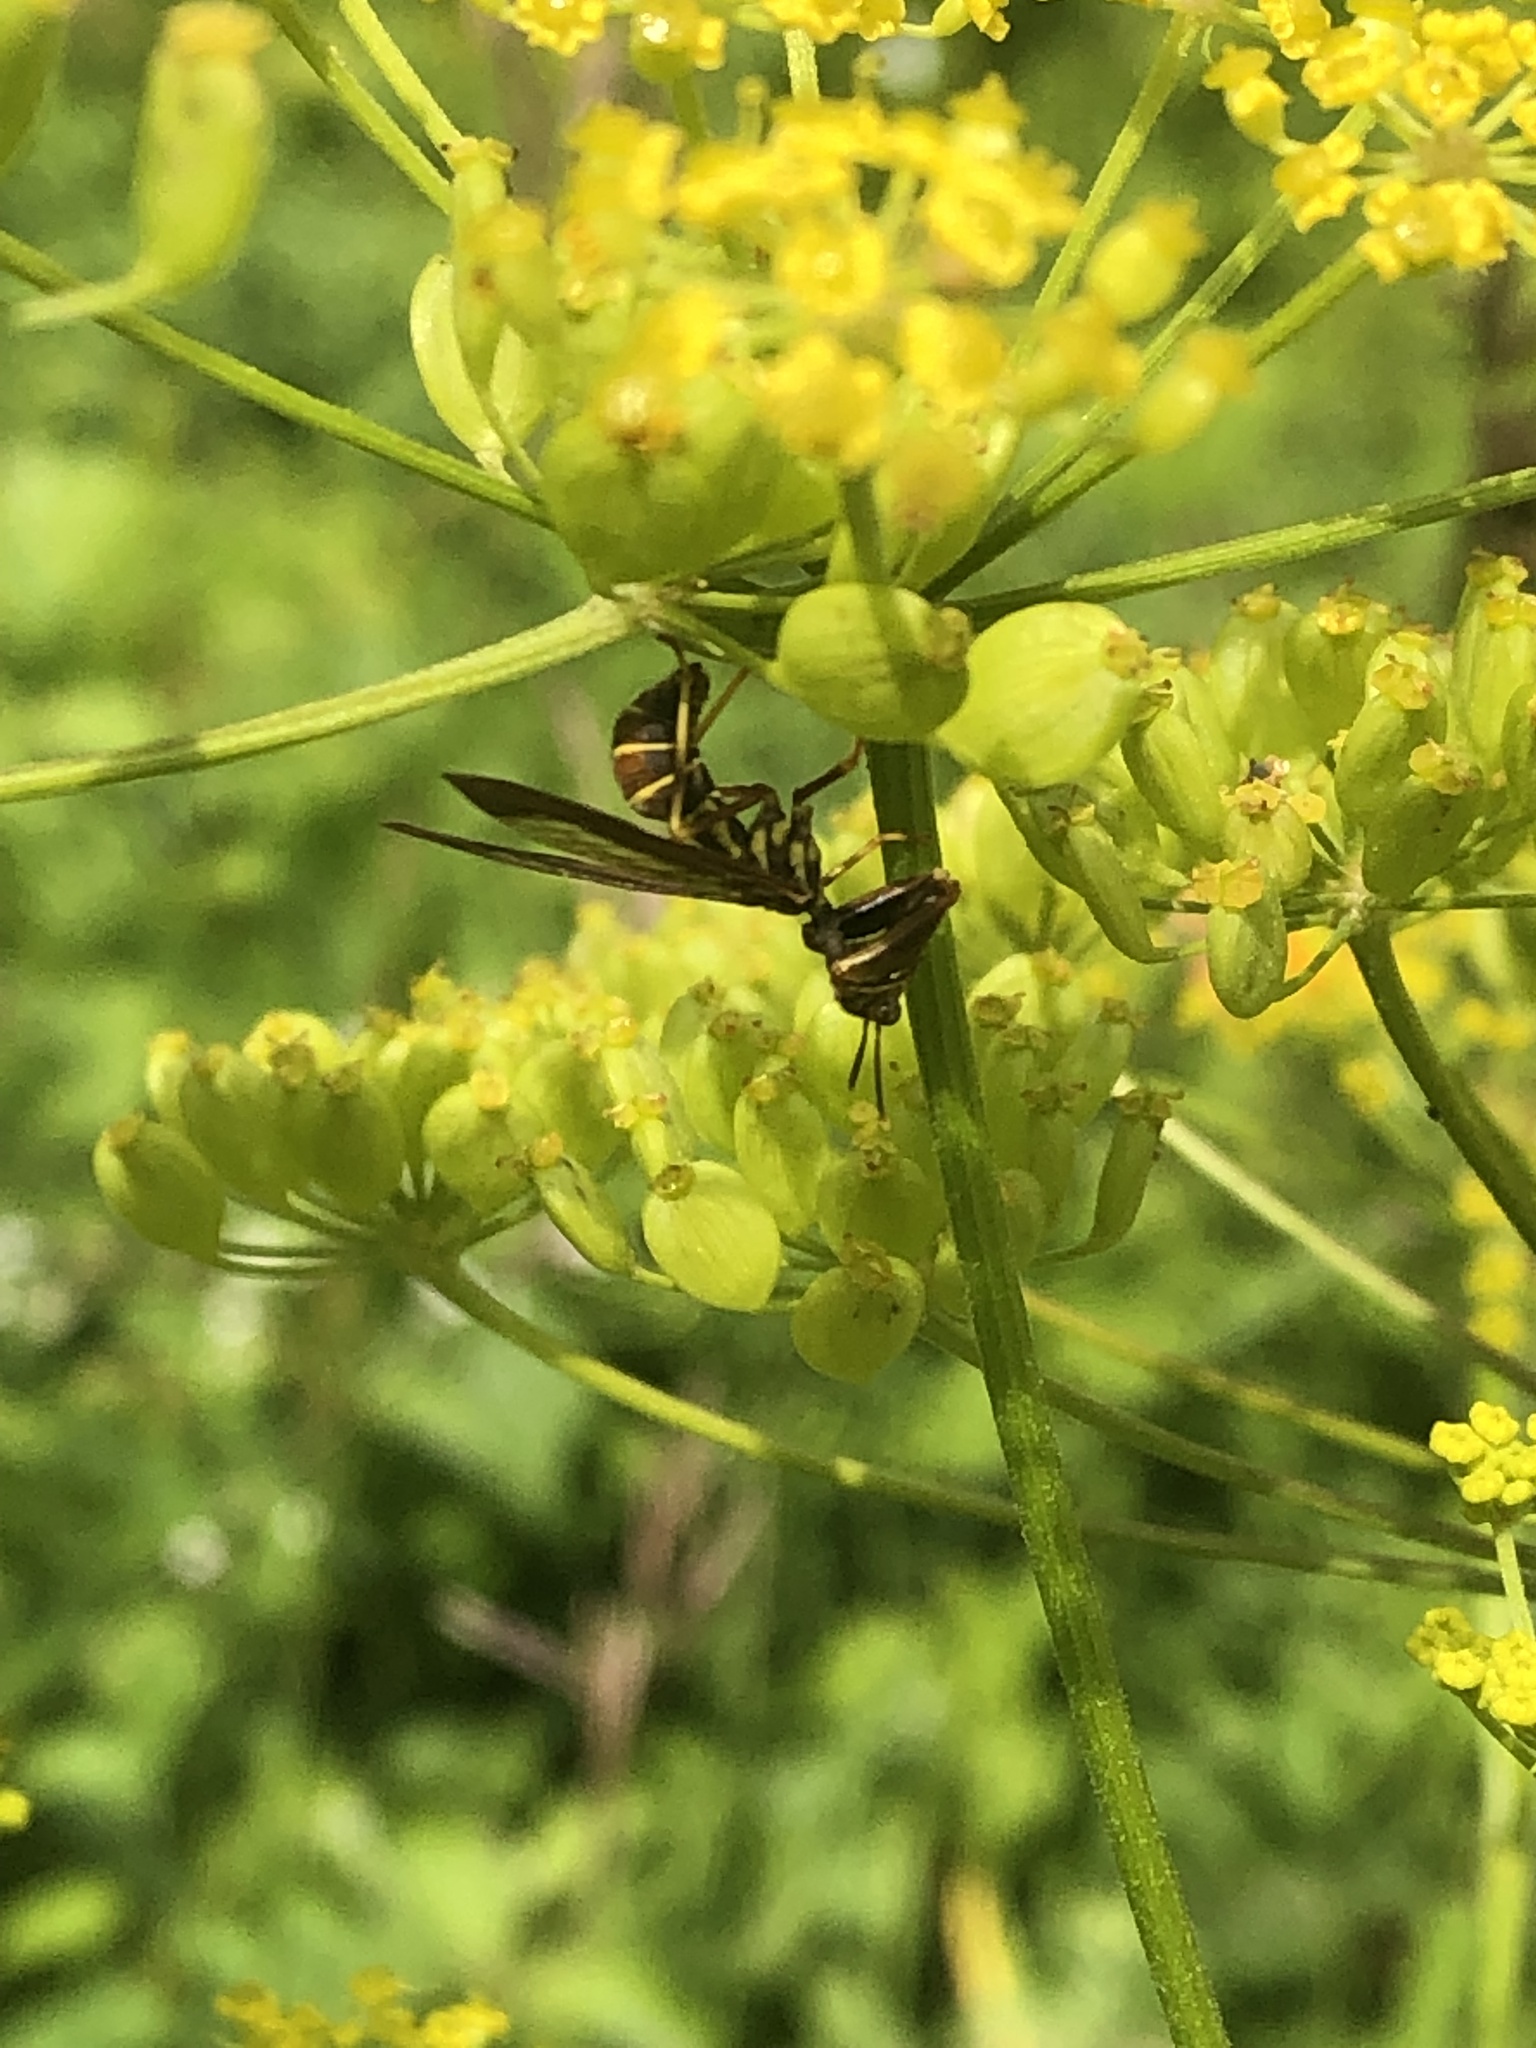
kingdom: Animalia
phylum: Arthropoda
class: Insecta
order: Neuroptera
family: Mantispidae
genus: Climaciella
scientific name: Climaciella brunnea
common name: Brown wasp mantidfly
